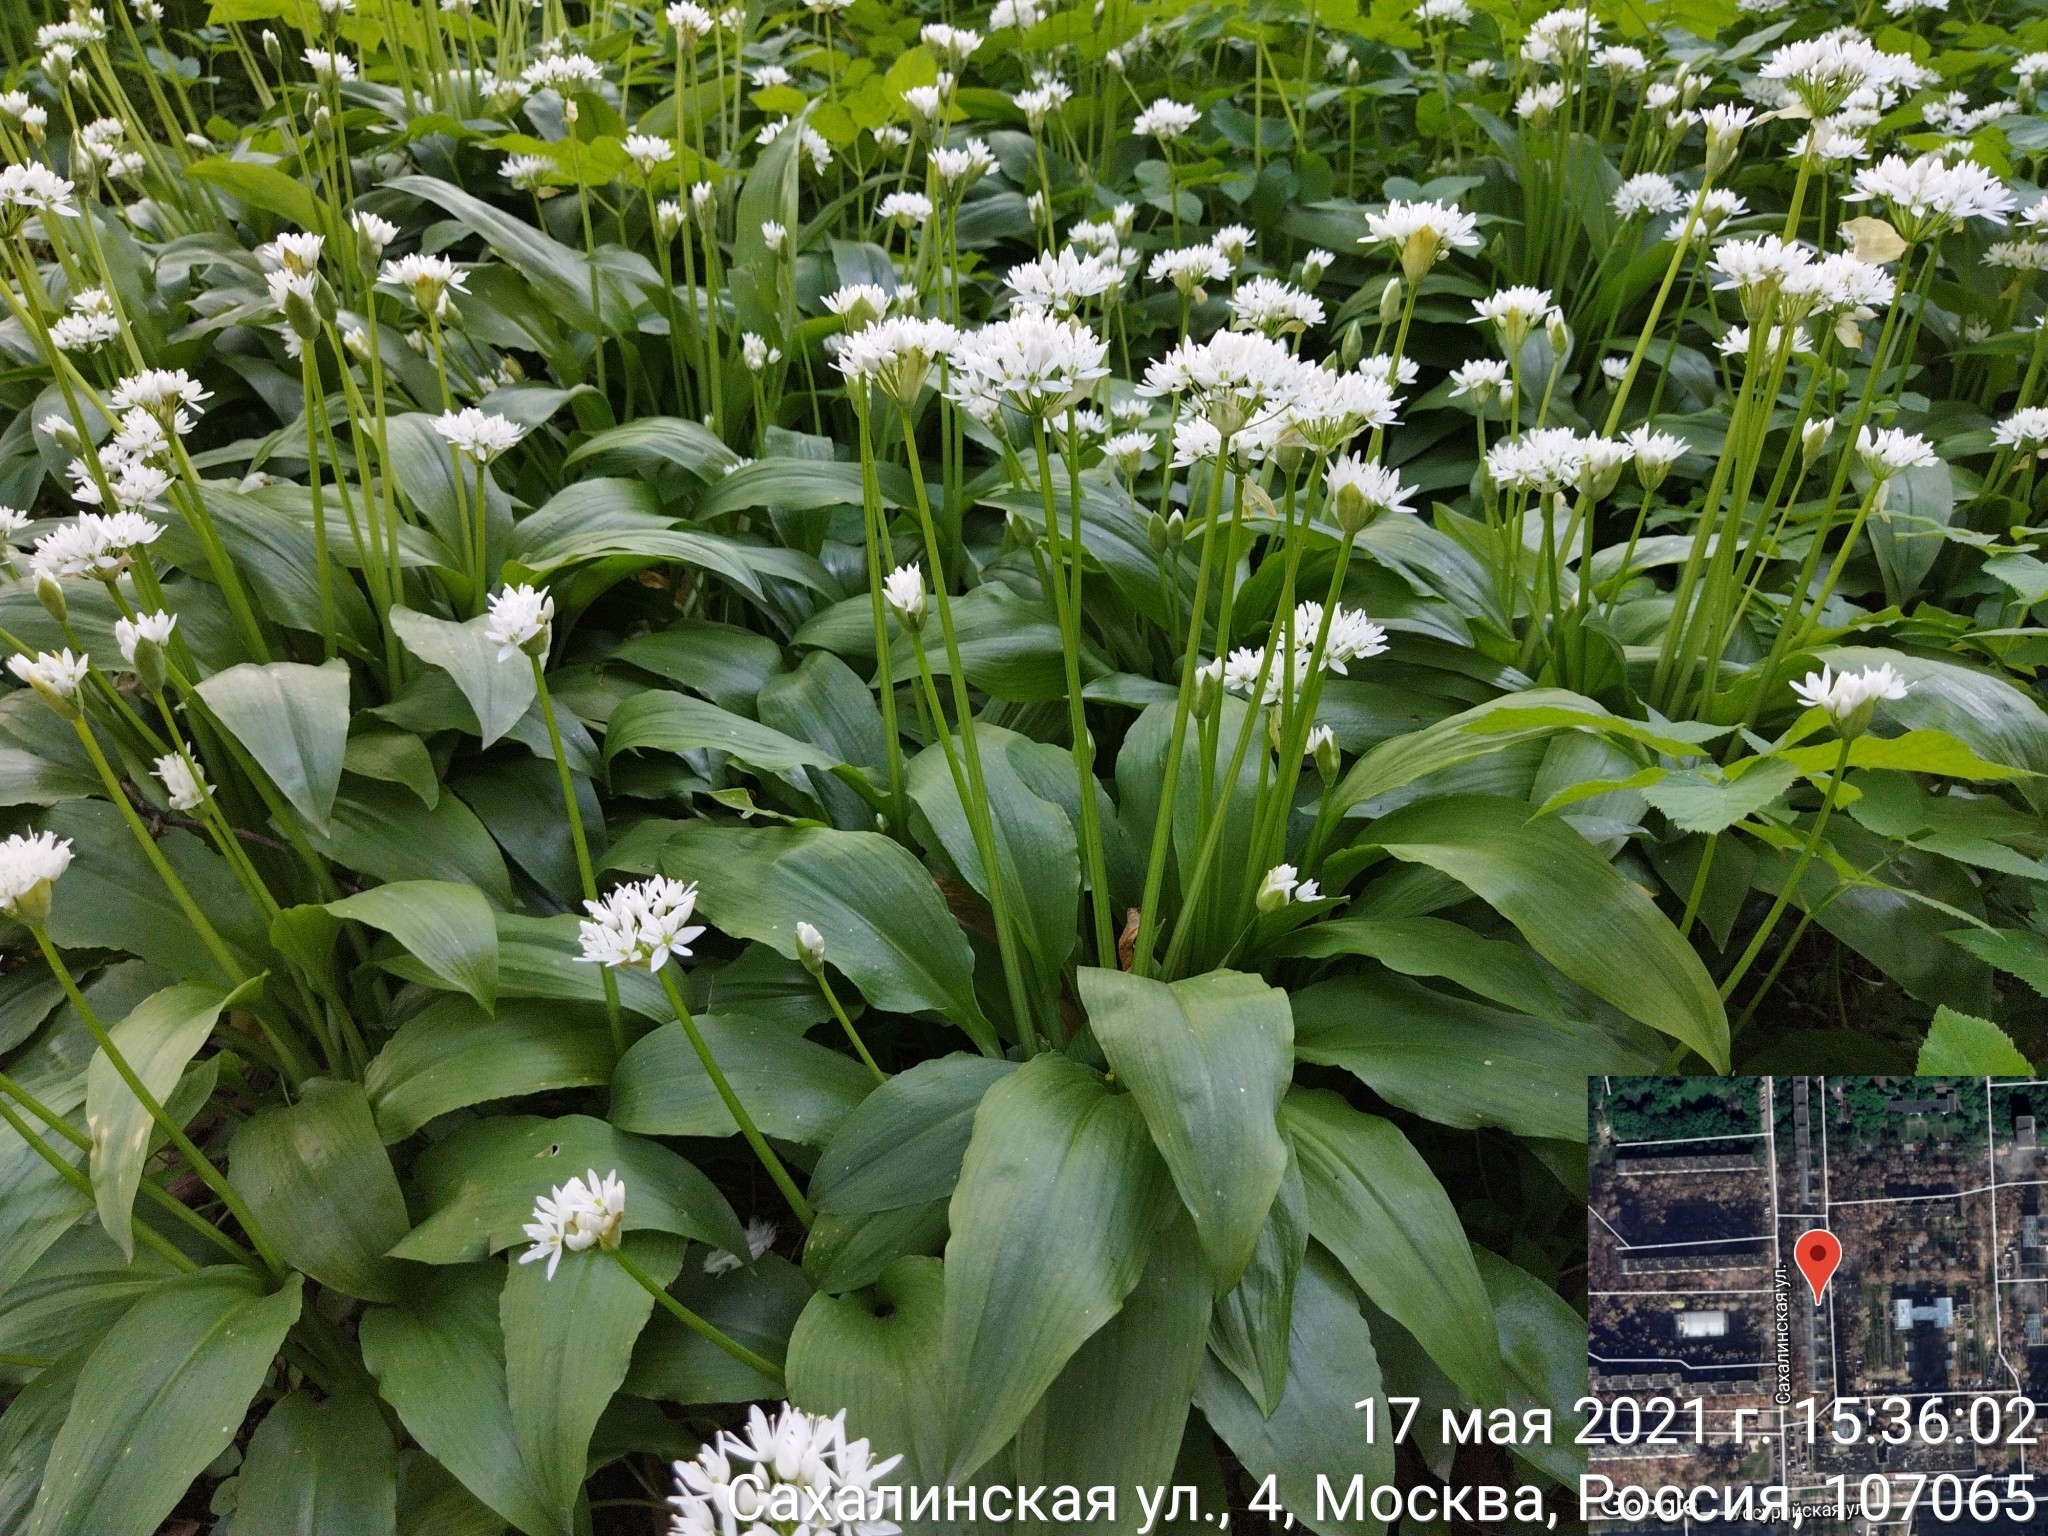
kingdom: Plantae
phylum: Tracheophyta
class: Liliopsida
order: Asparagales
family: Amaryllidaceae
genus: Allium
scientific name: Allium ursinum
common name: Ramsons
